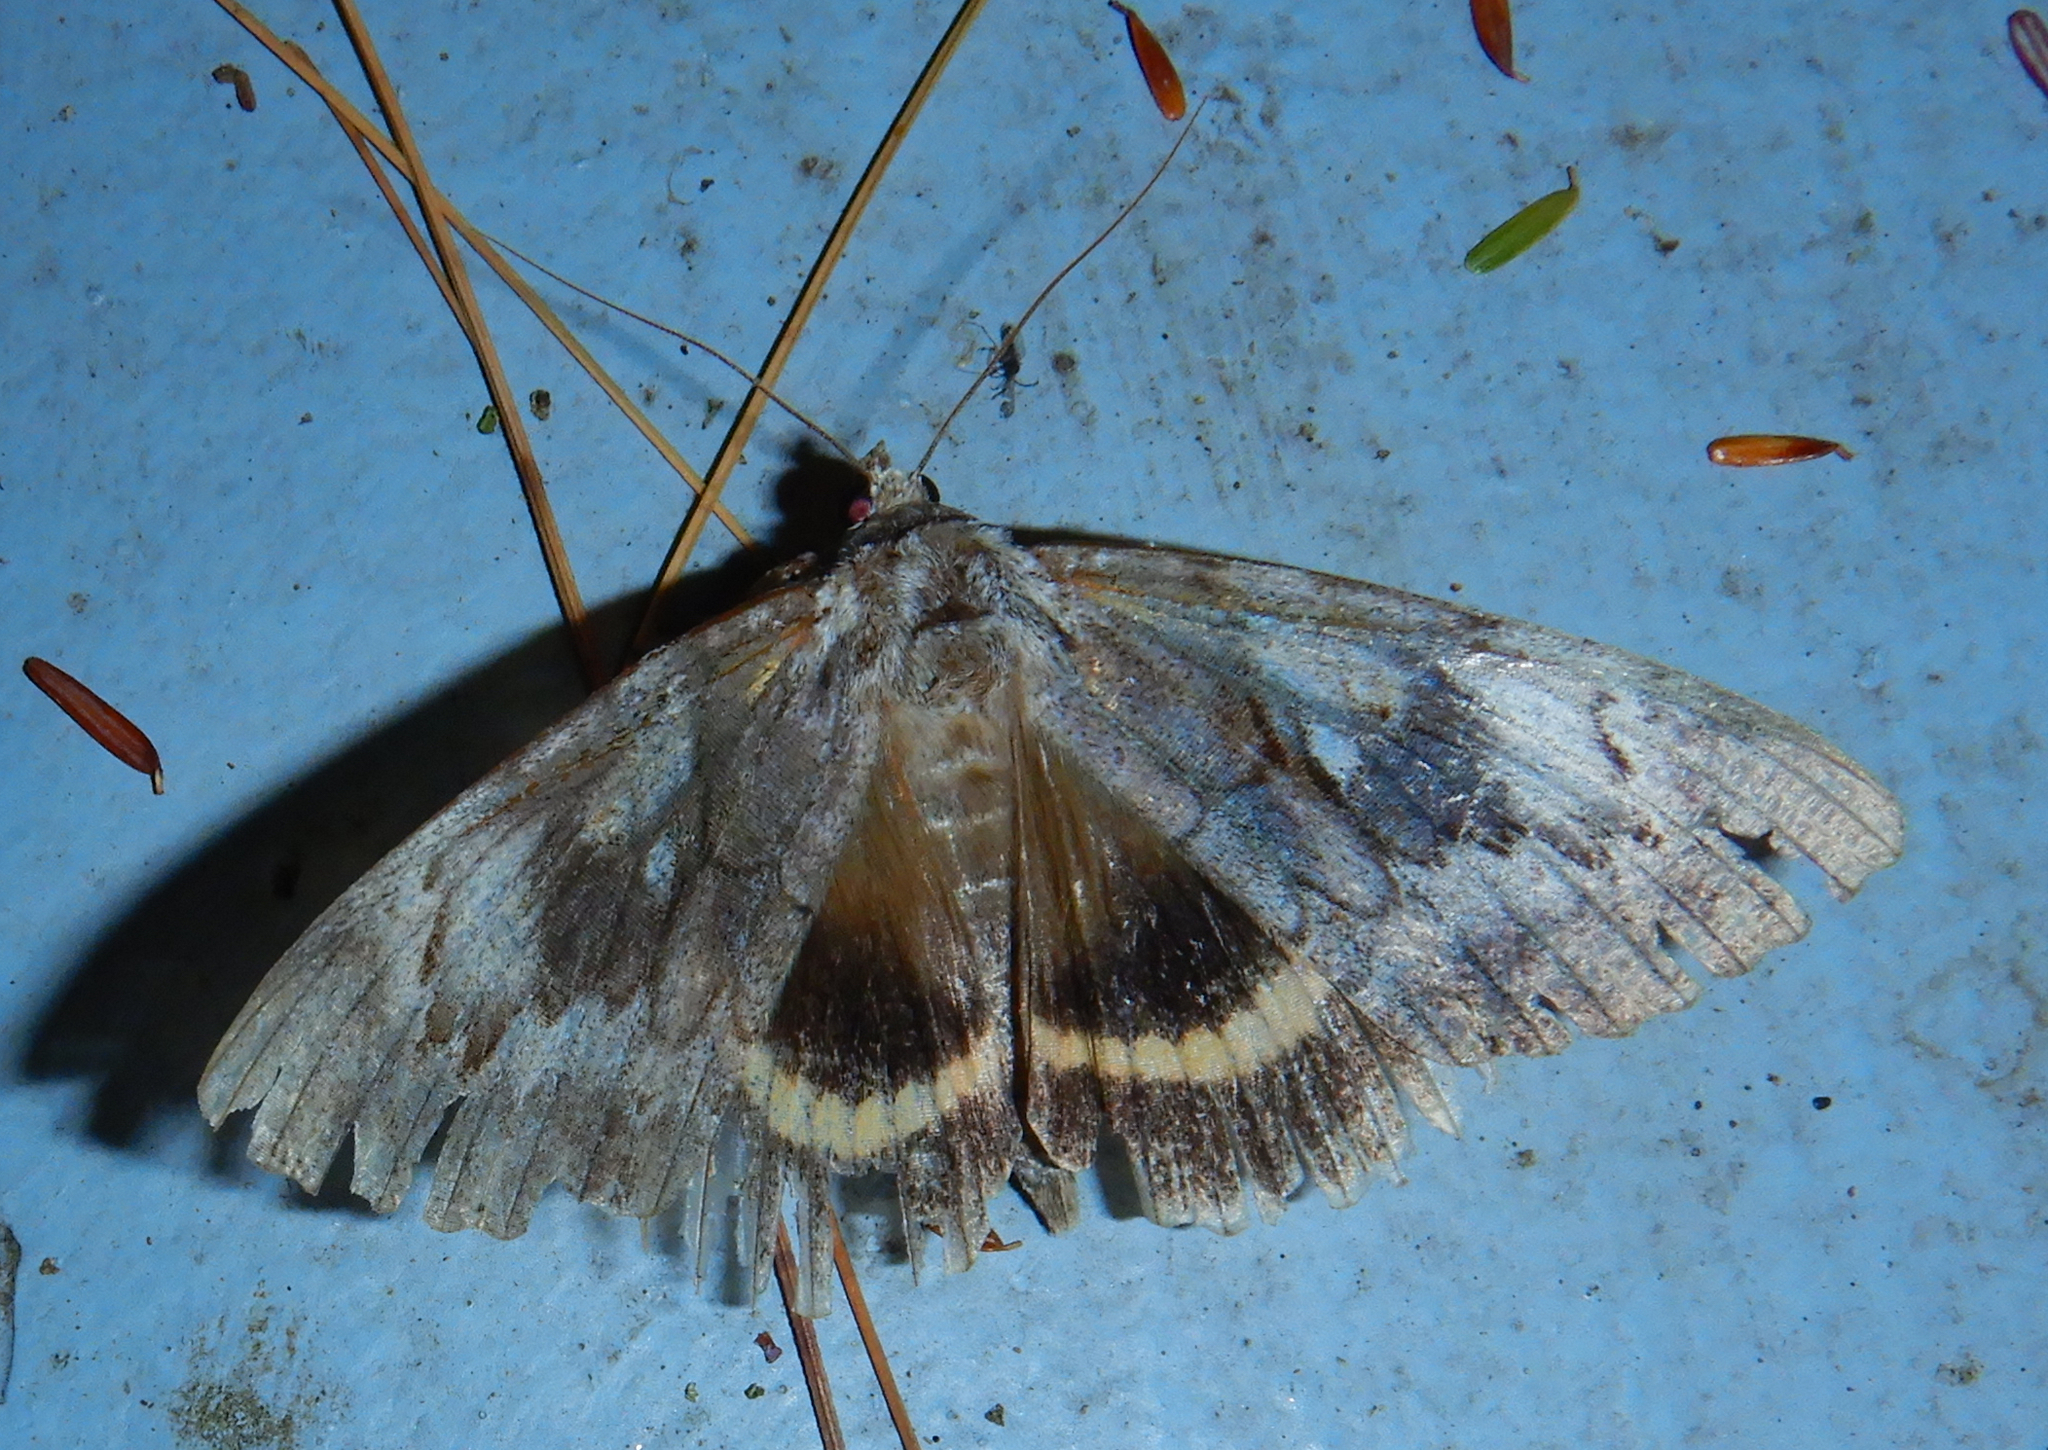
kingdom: Animalia
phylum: Arthropoda
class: Insecta
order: Lepidoptera
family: Erebidae
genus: Catocala
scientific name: Catocala cerogama
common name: Yellow banded underwing
